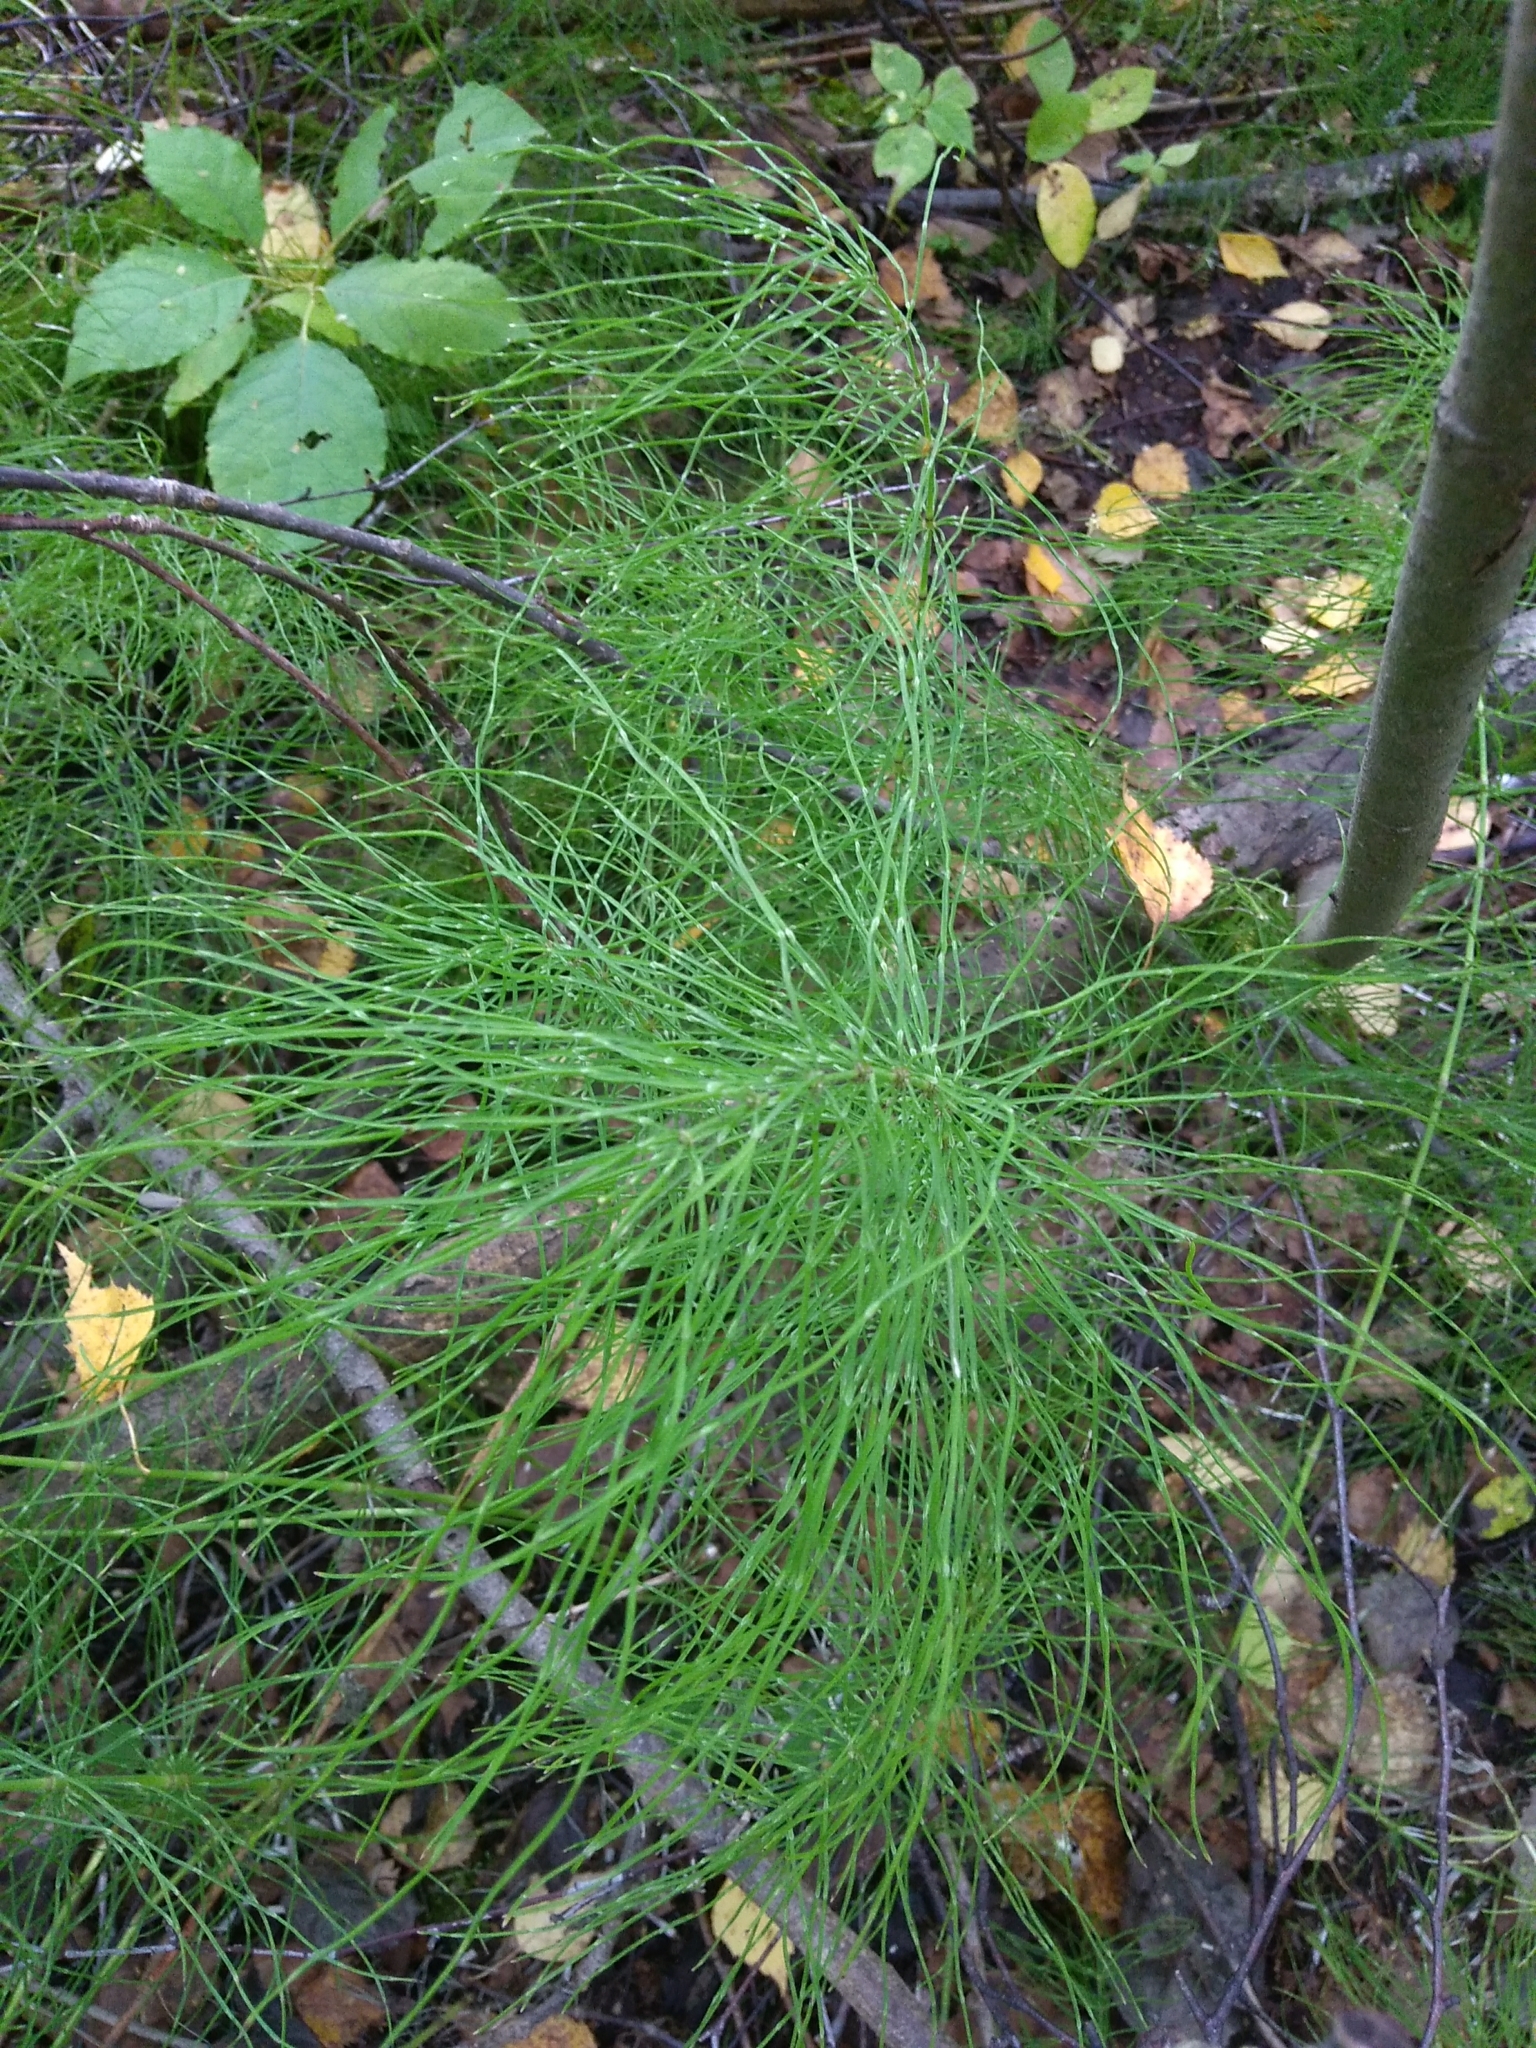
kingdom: Plantae
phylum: Tracheophyta
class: Polypodiopsida
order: Equisetales
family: Equisetaceae
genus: Equisetum
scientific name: Equisetum pratense
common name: Meadow horsetail
